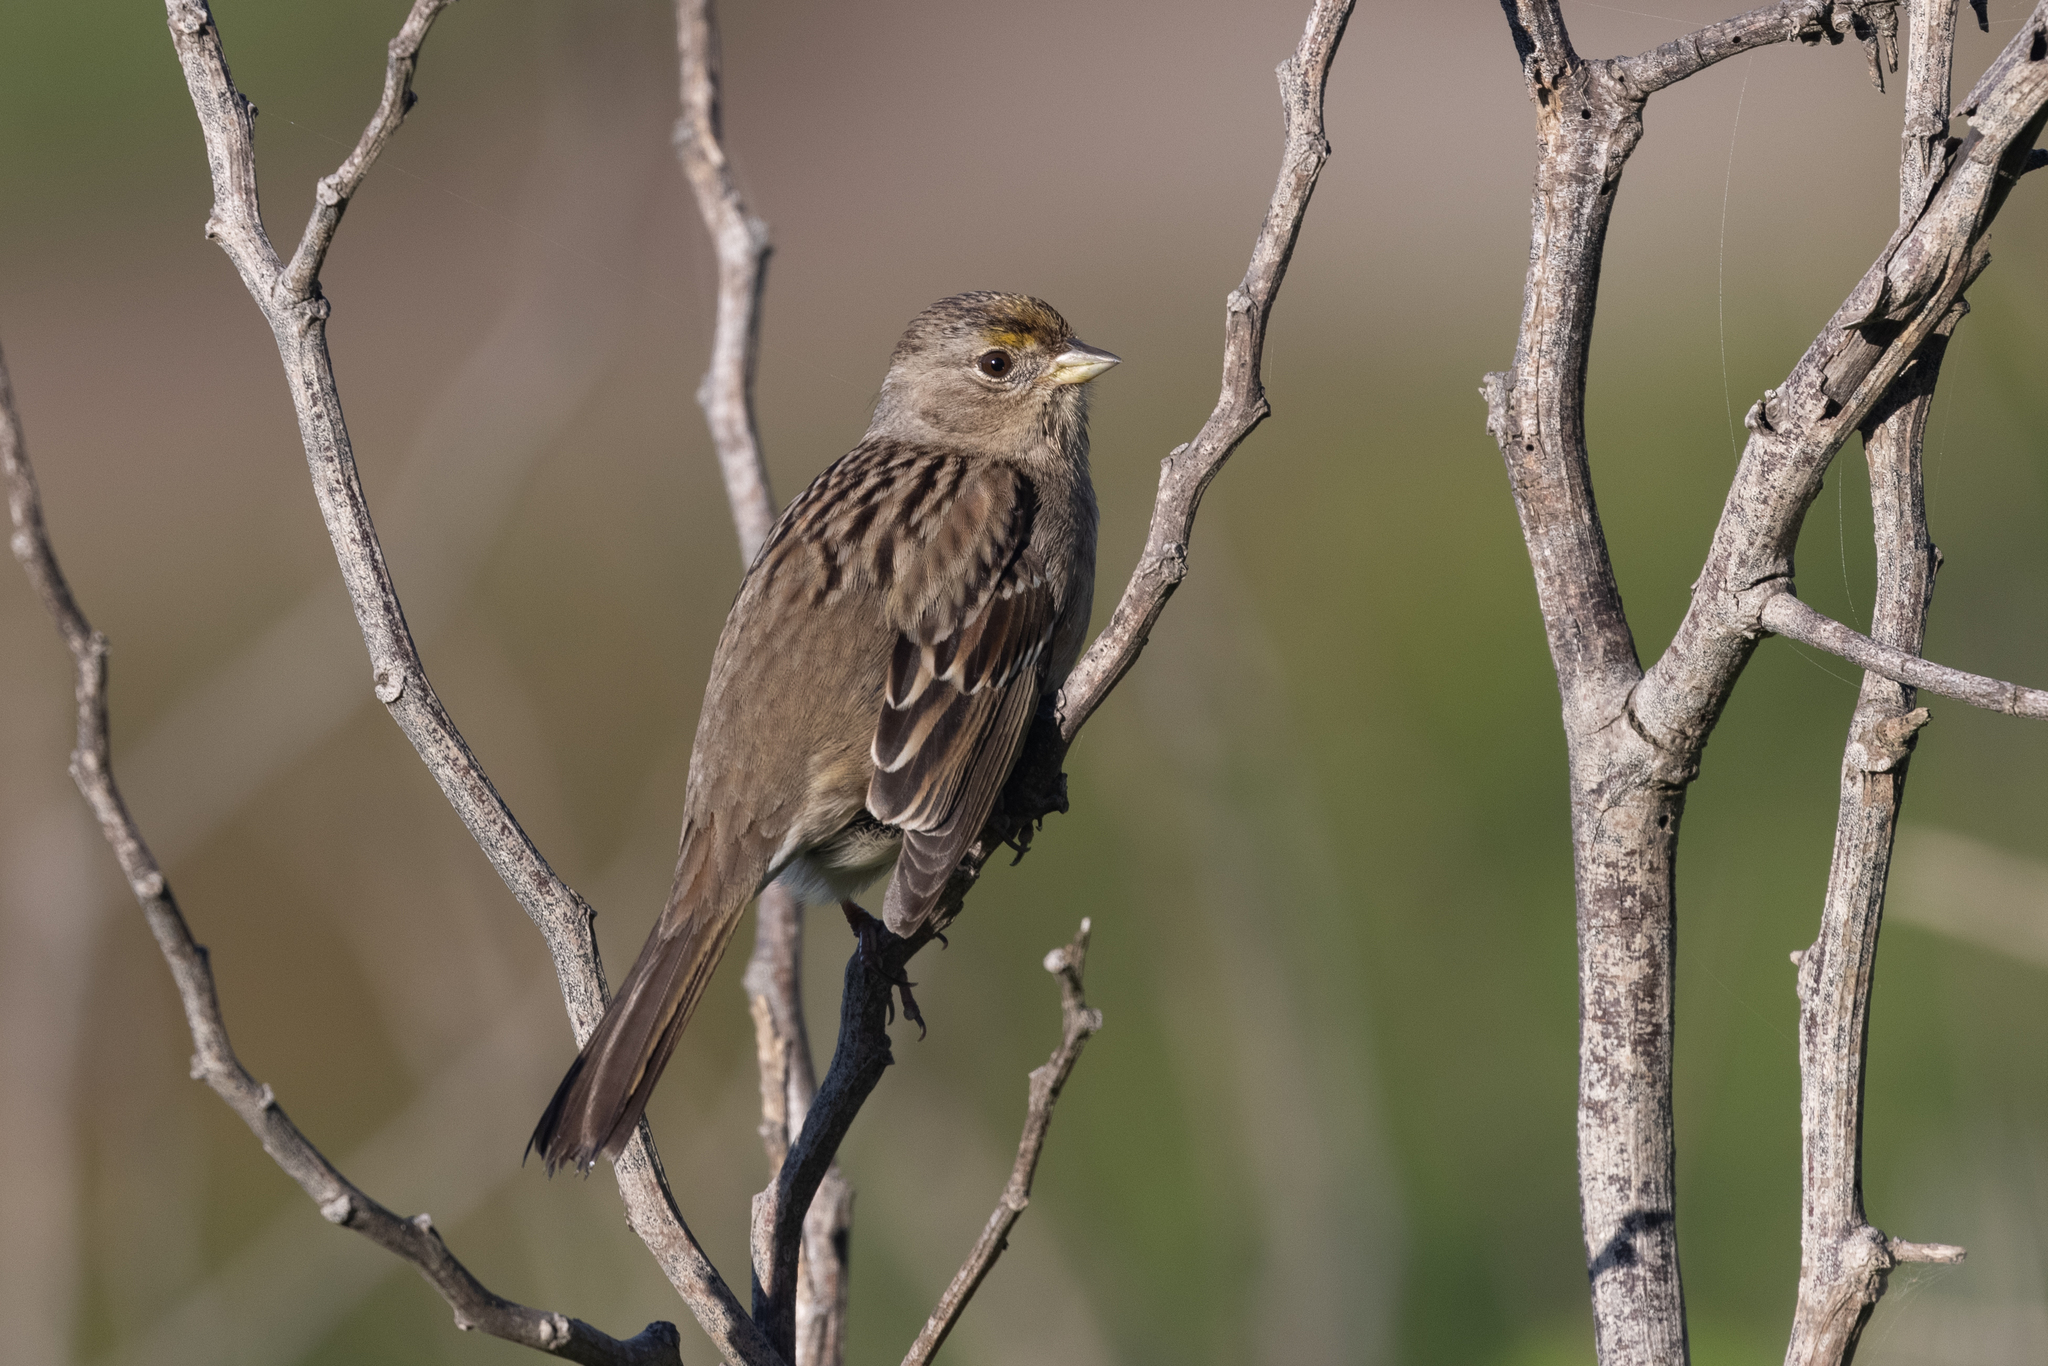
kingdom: Animalia
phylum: Chordata
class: Aves
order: Passeriformes
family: Passerellidae
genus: Zonotrichia
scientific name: Zonotrichia atricapilla
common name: Golden-crowned sparrow
